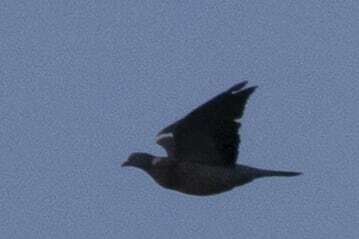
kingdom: Animalia
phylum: Chordata
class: Aves
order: Columbiformes
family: Columbidae
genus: Columba
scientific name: Columba palumbus
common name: Common wood pigeon
